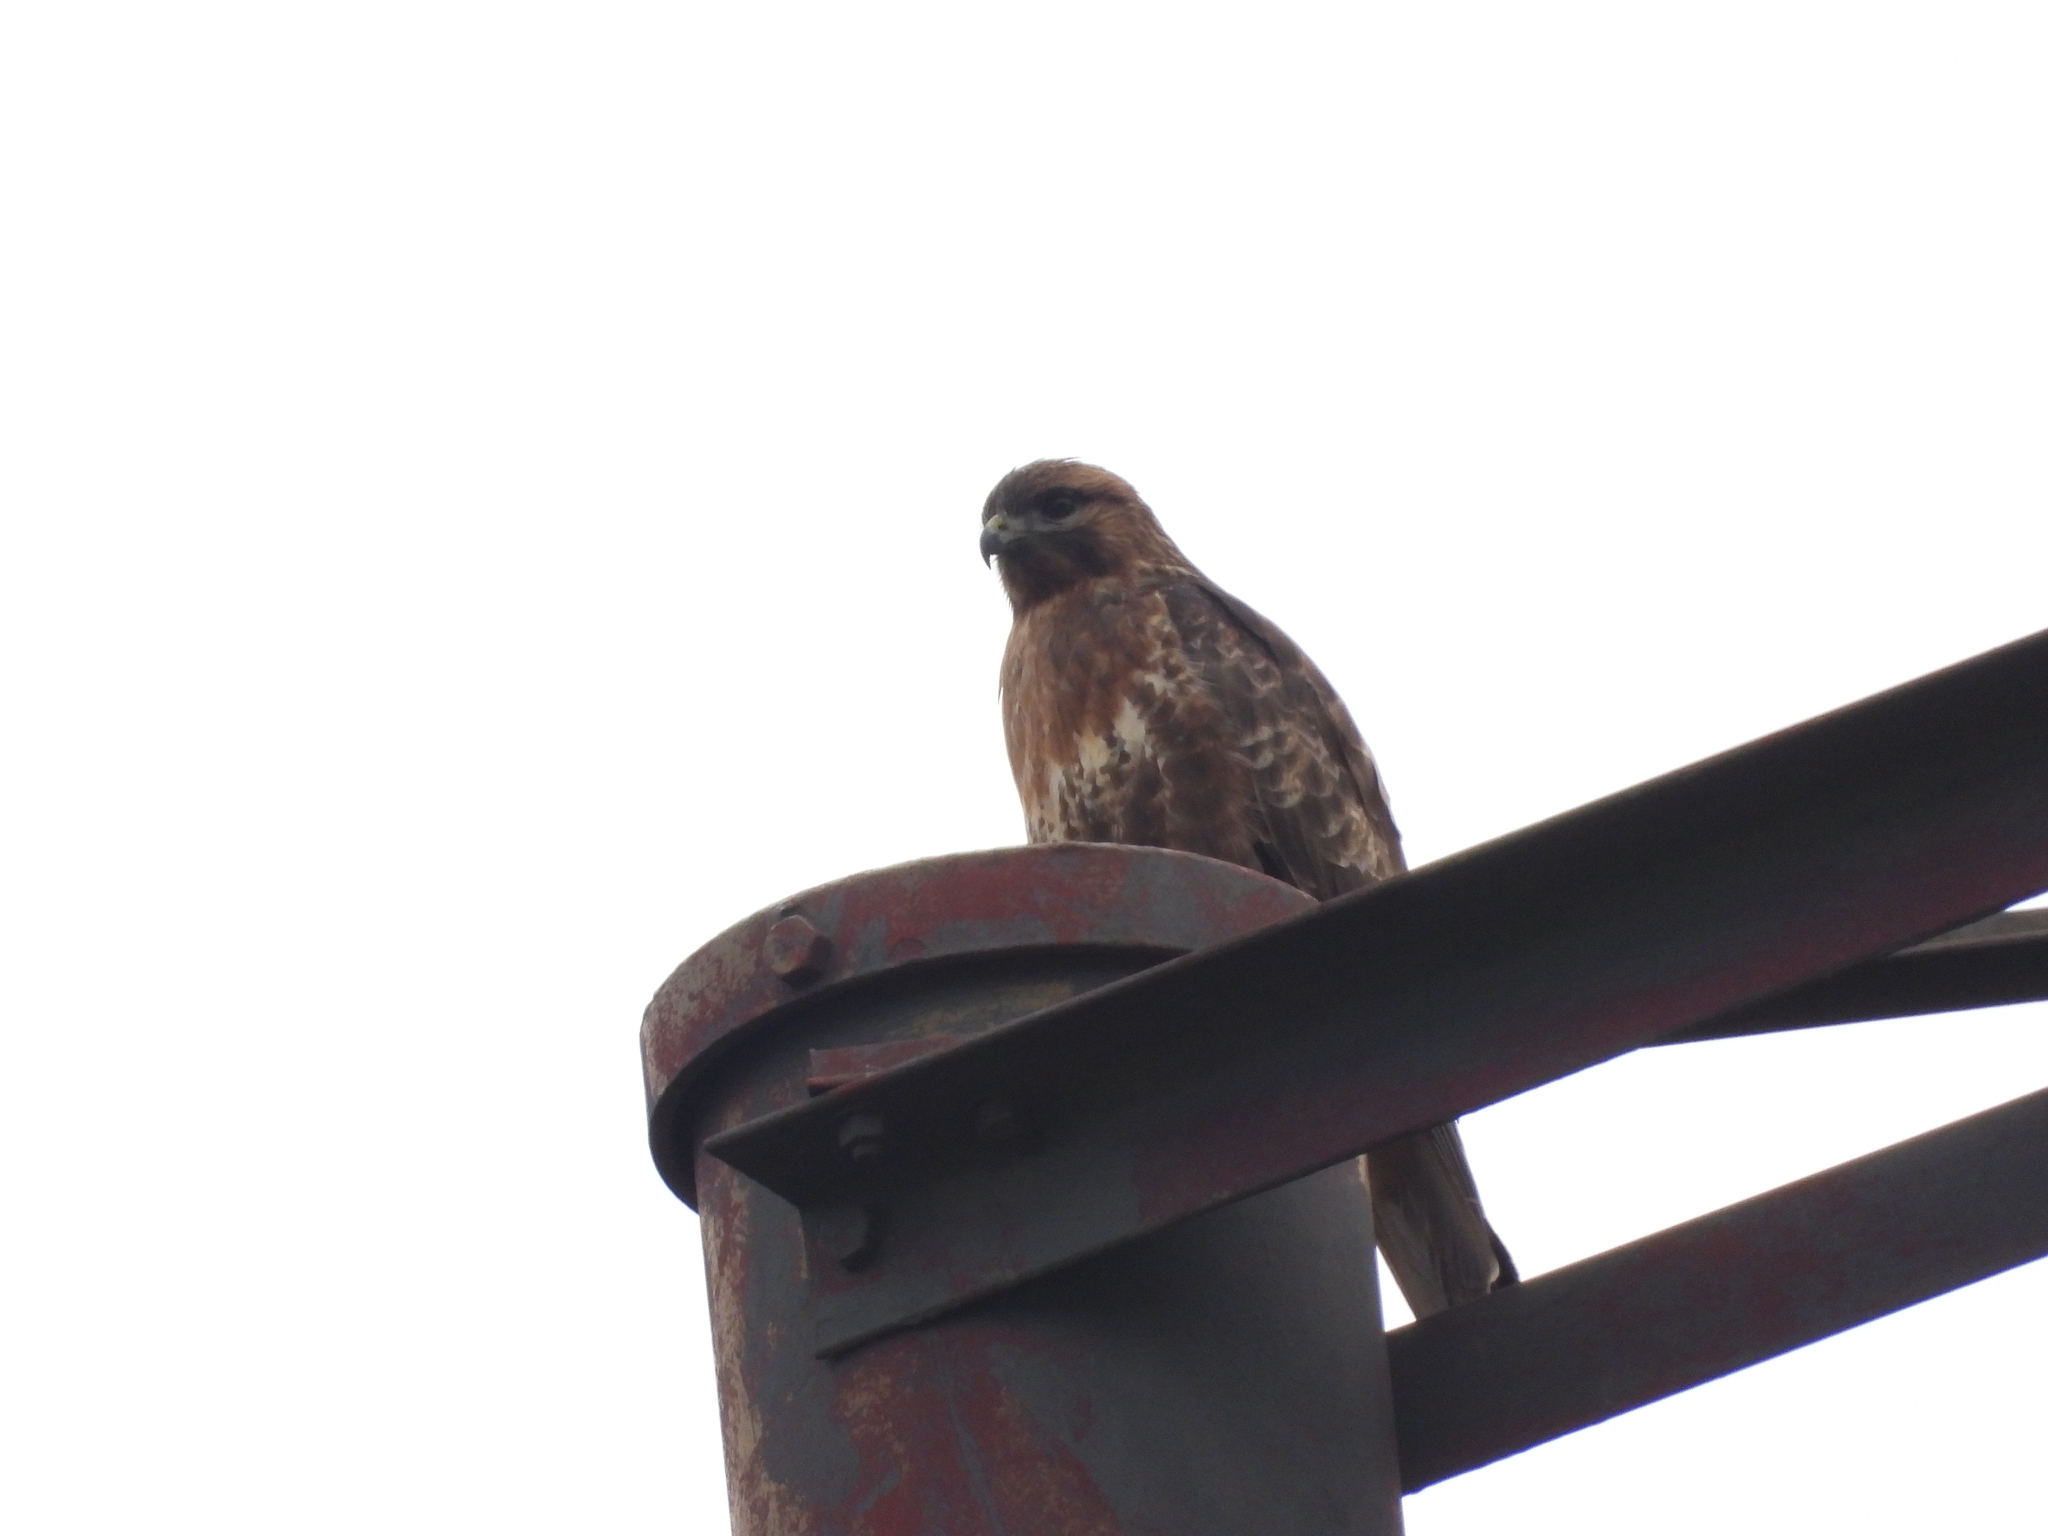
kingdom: Animalia
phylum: Chordata
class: Aves
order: Accipitriformes
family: Accipitridae
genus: Buteo
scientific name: Buteo japonicus
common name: Eastern buzzard
